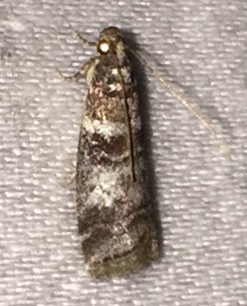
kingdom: Animalia
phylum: Arthropoda
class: Insecta
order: Lepidoptera
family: Pyralidae
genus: Sciota
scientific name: Sciota uvinella
